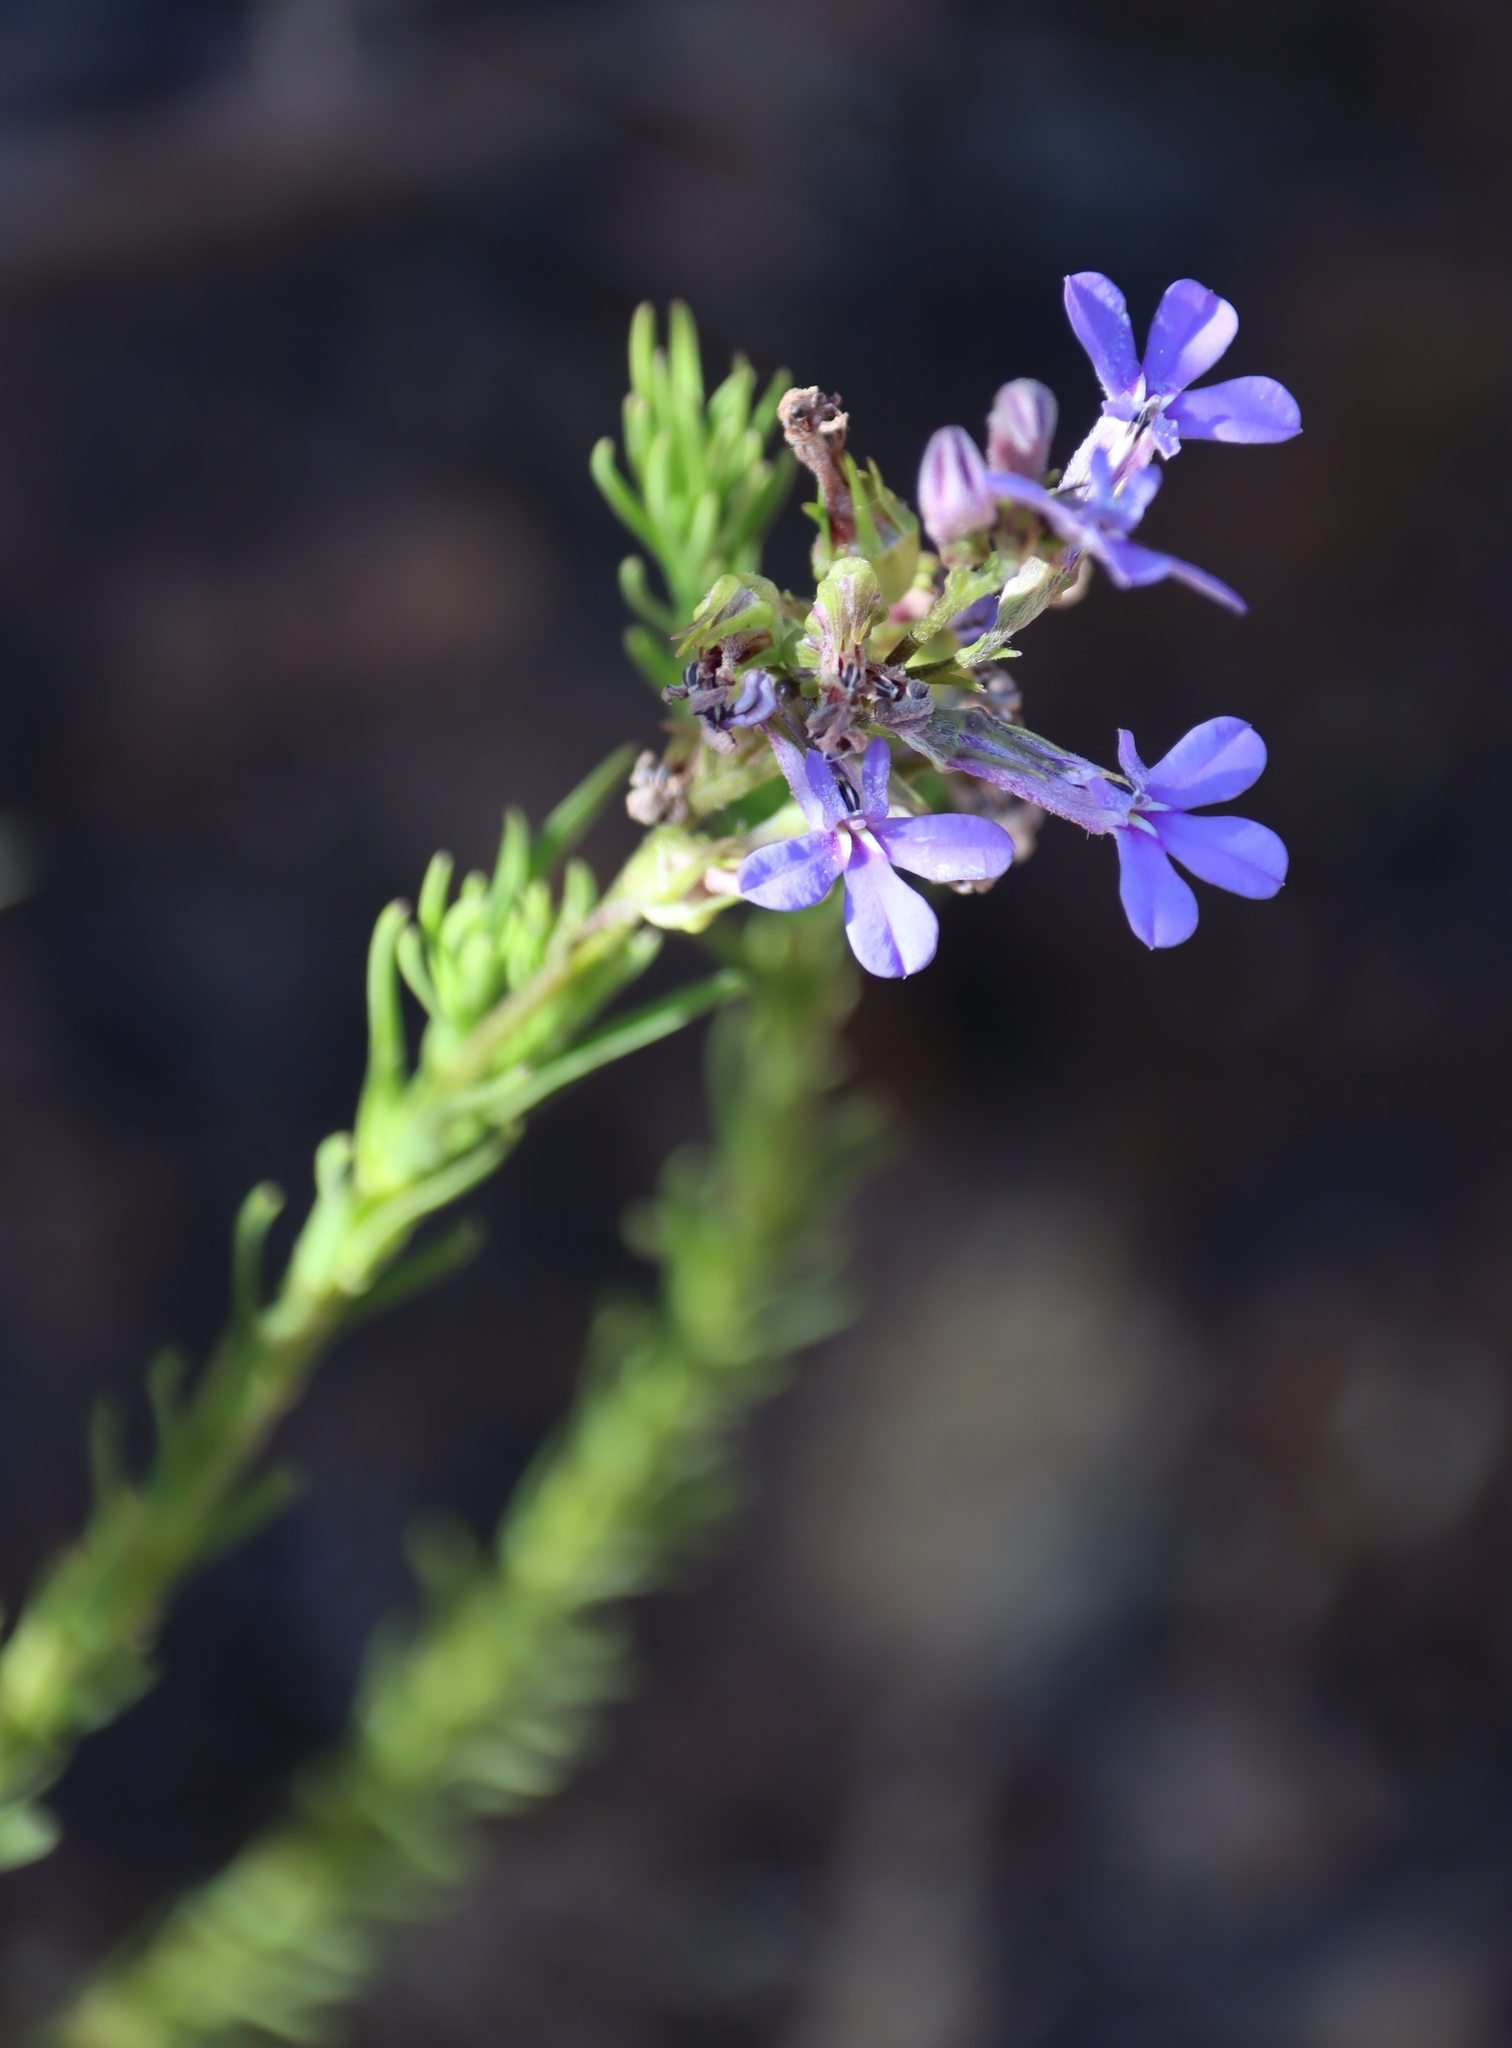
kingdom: Plantae
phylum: Tracheophyta
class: Magnoliopsida
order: Asterales
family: Campanulaceae
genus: Lobelia
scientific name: Lobelia pinifolia
